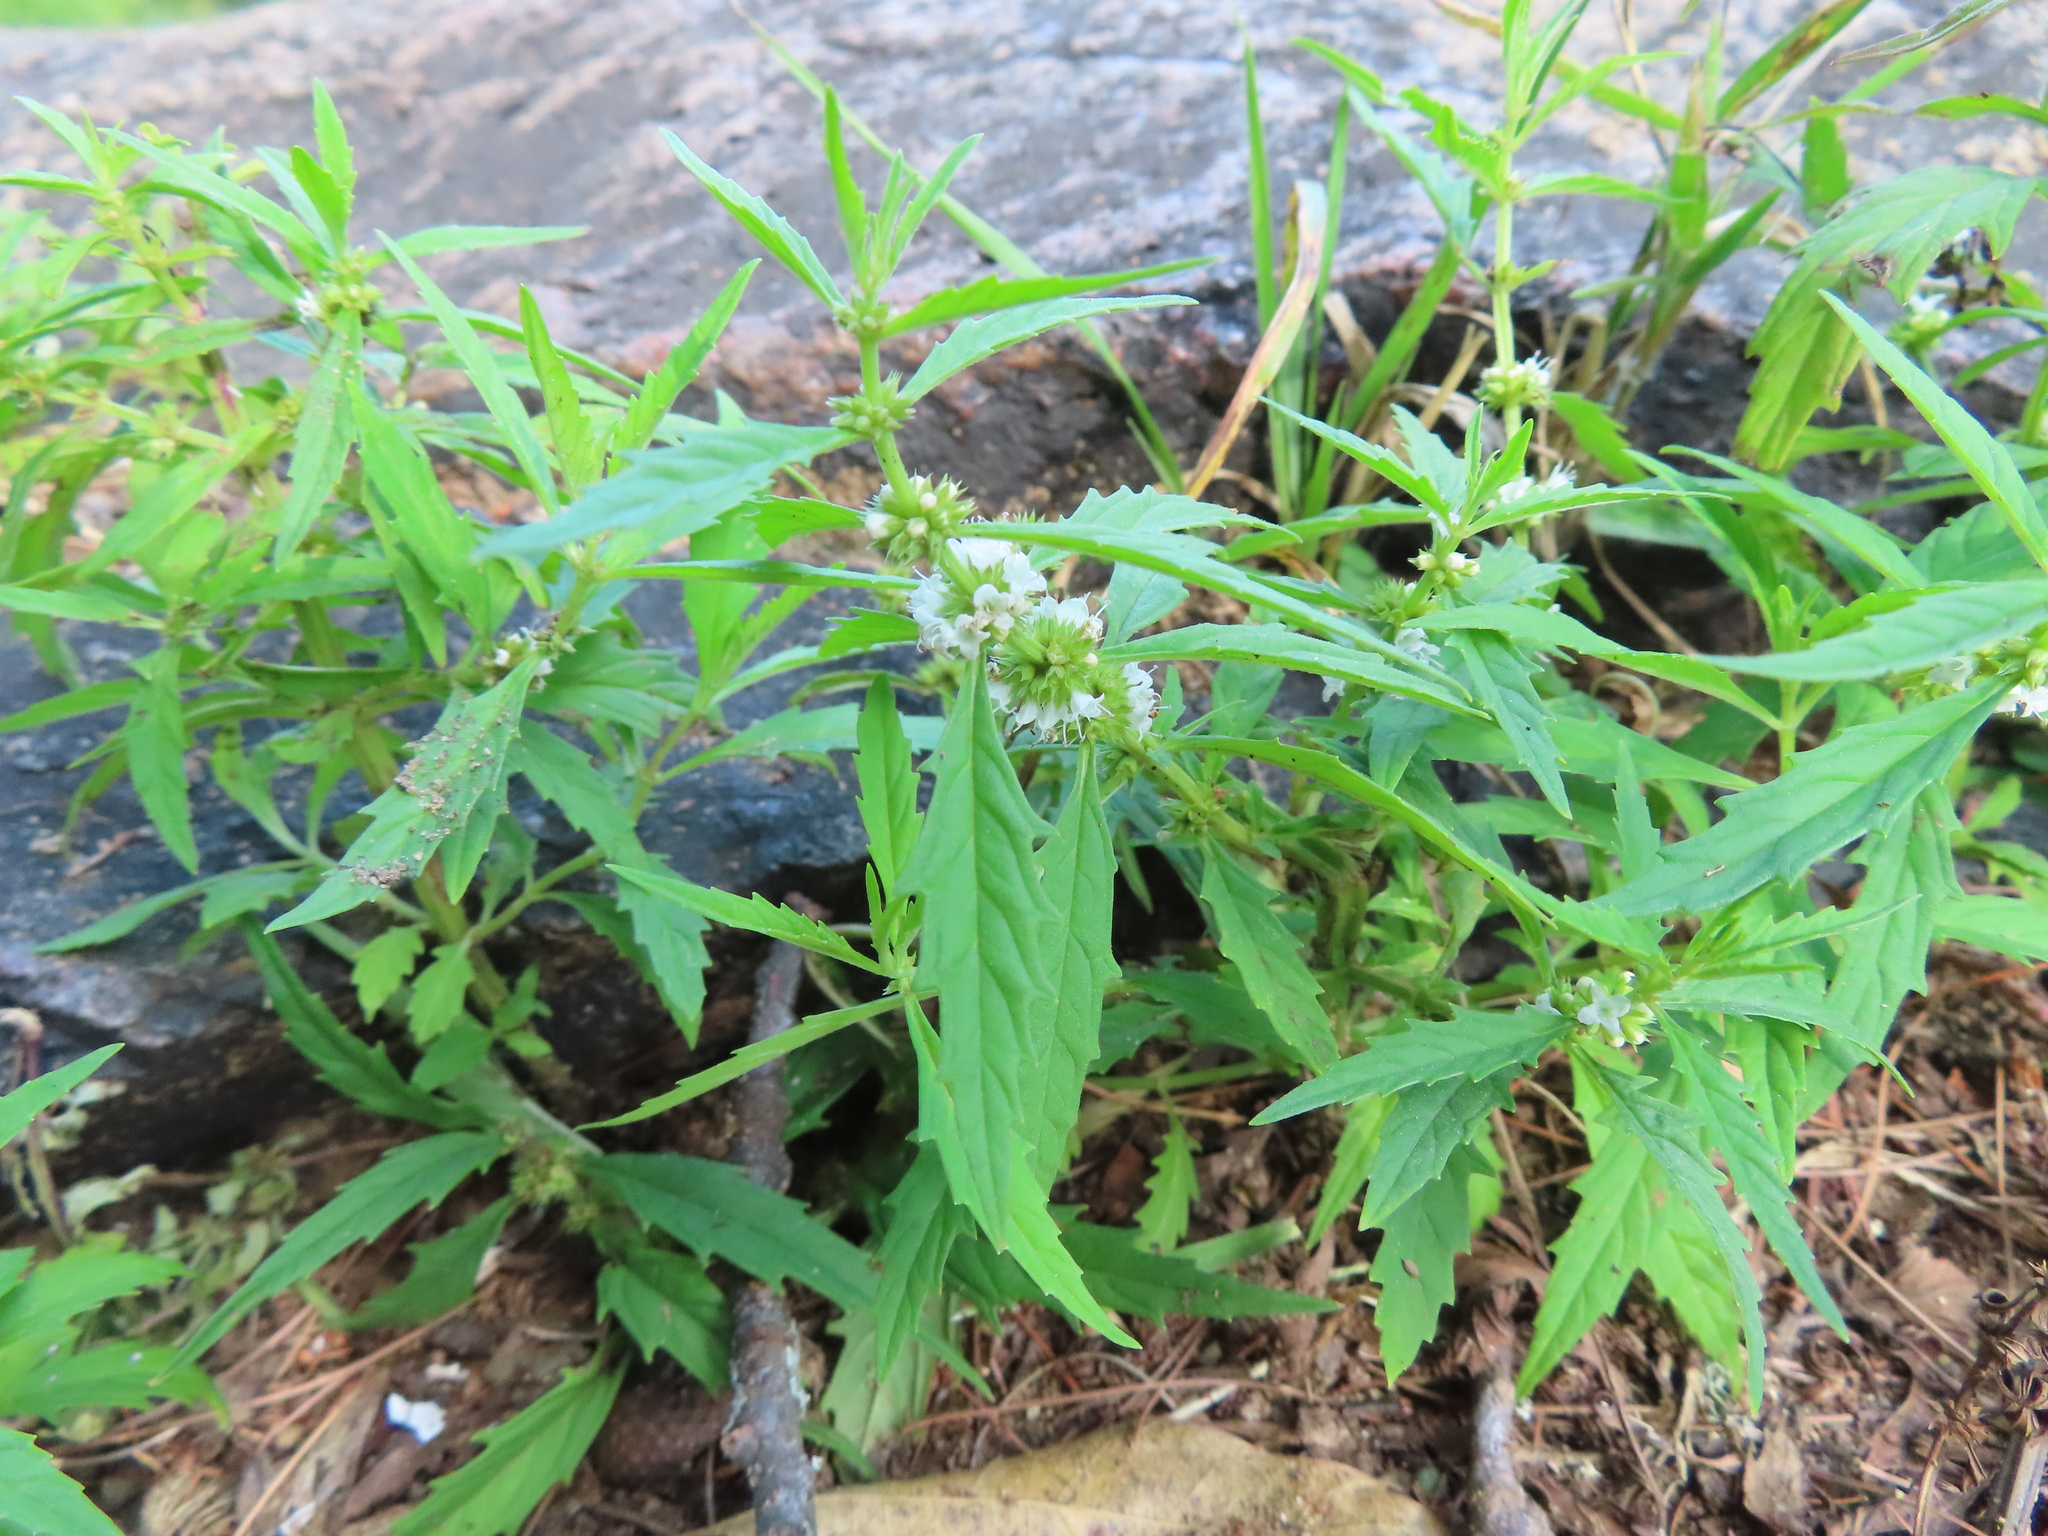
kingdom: Plantae
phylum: Tracheophyta
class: Magnoliopsida
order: Lamiales
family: Lamiaceae
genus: Lycopus
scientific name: Lycopus americanus
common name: American bugleweed
